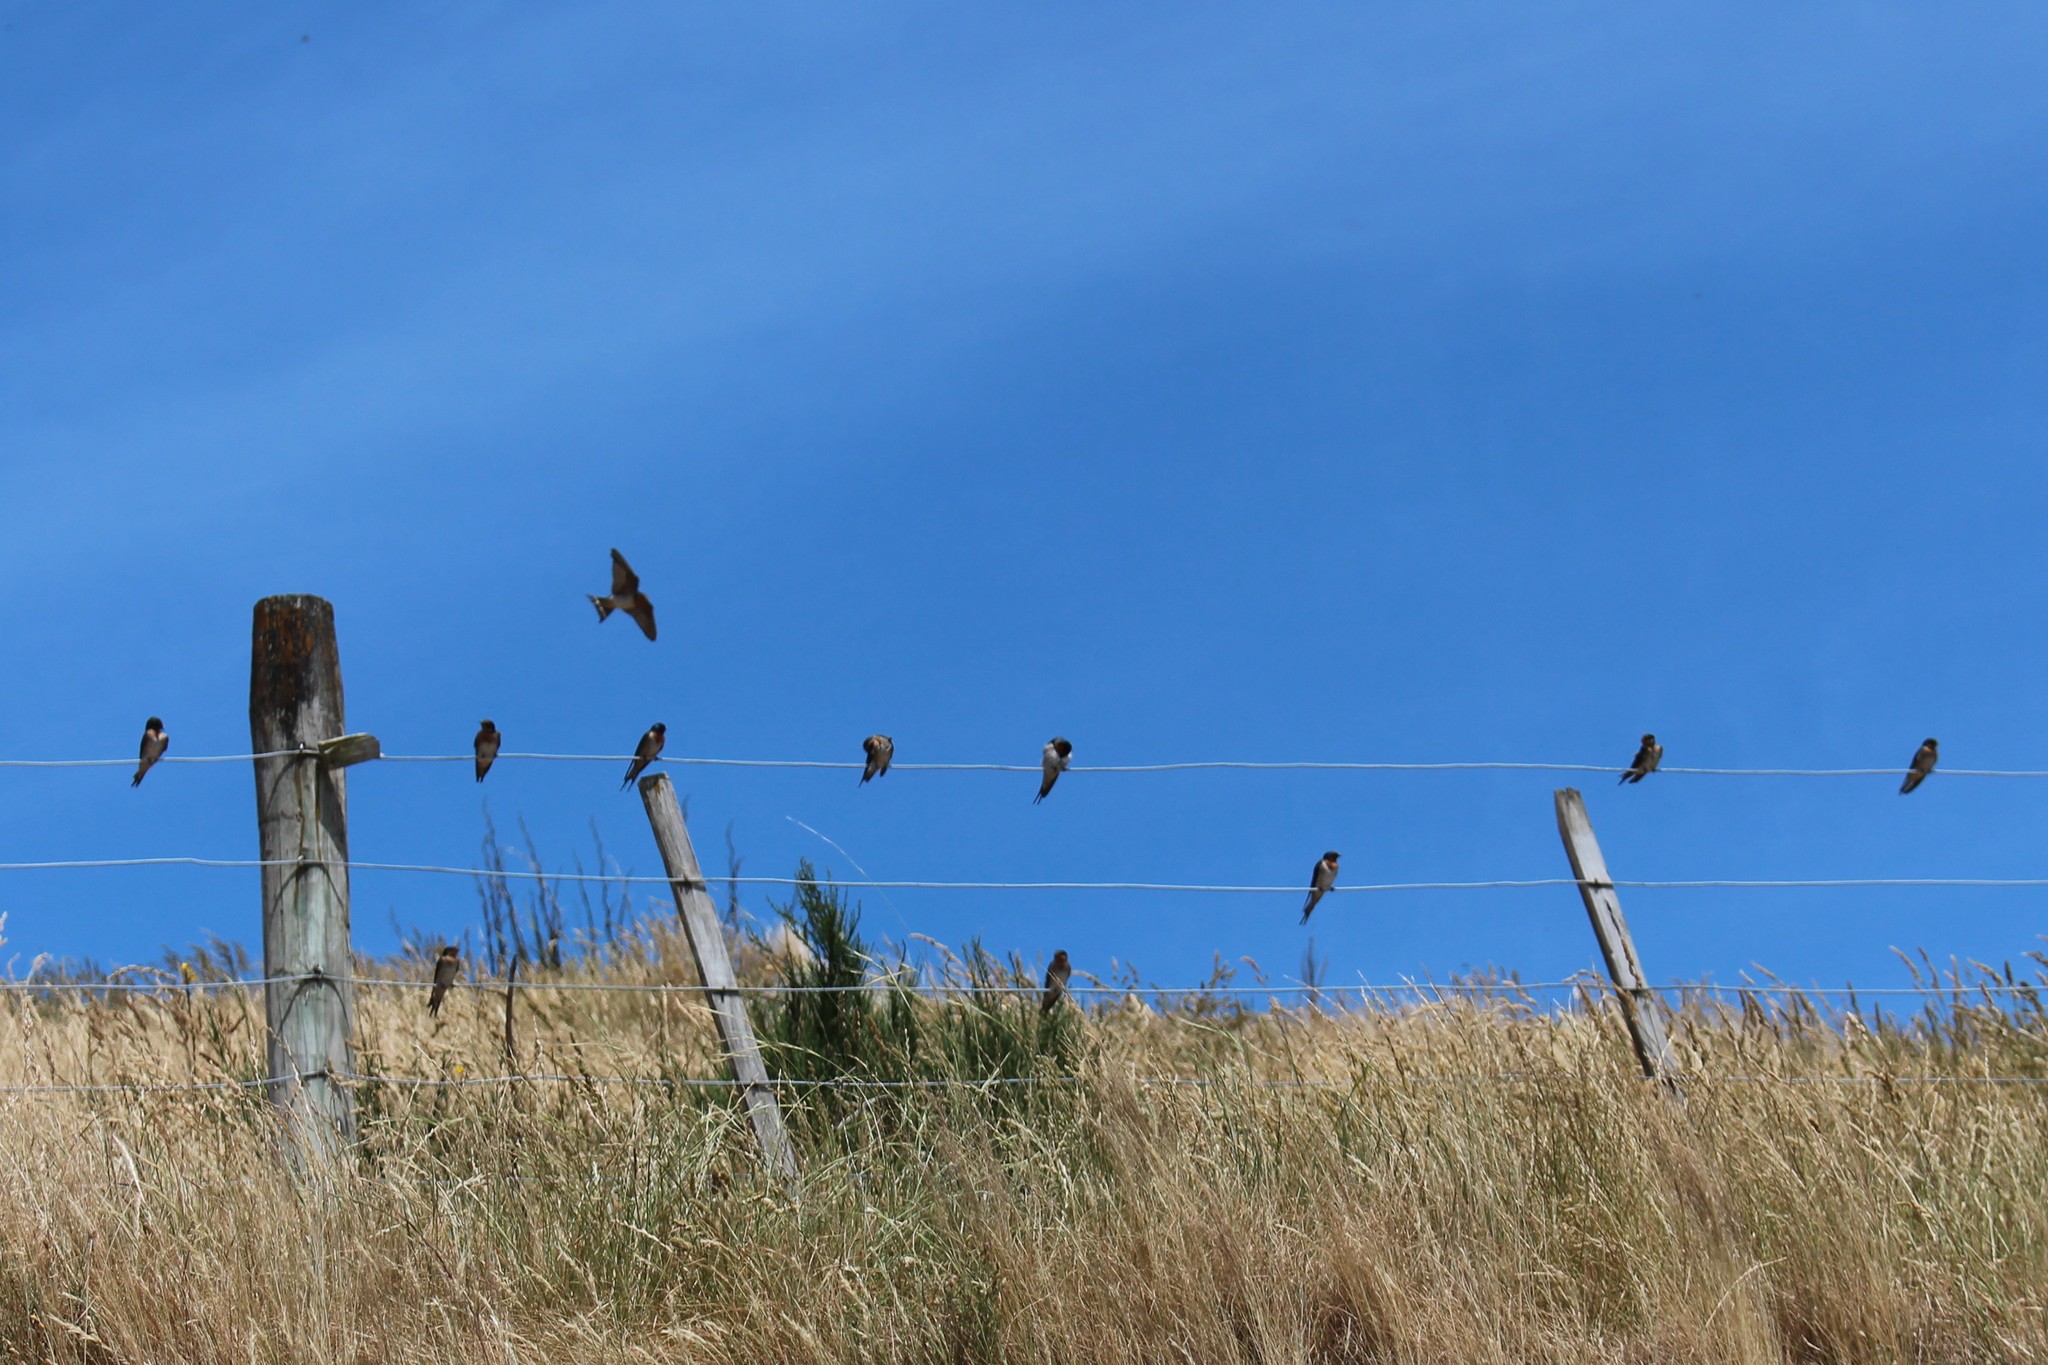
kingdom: Animalia
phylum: Chordata
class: Aves
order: Passeriformes
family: Hirundinidae
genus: Hirundo
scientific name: Hirundo neoxena
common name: Welcome swallow
